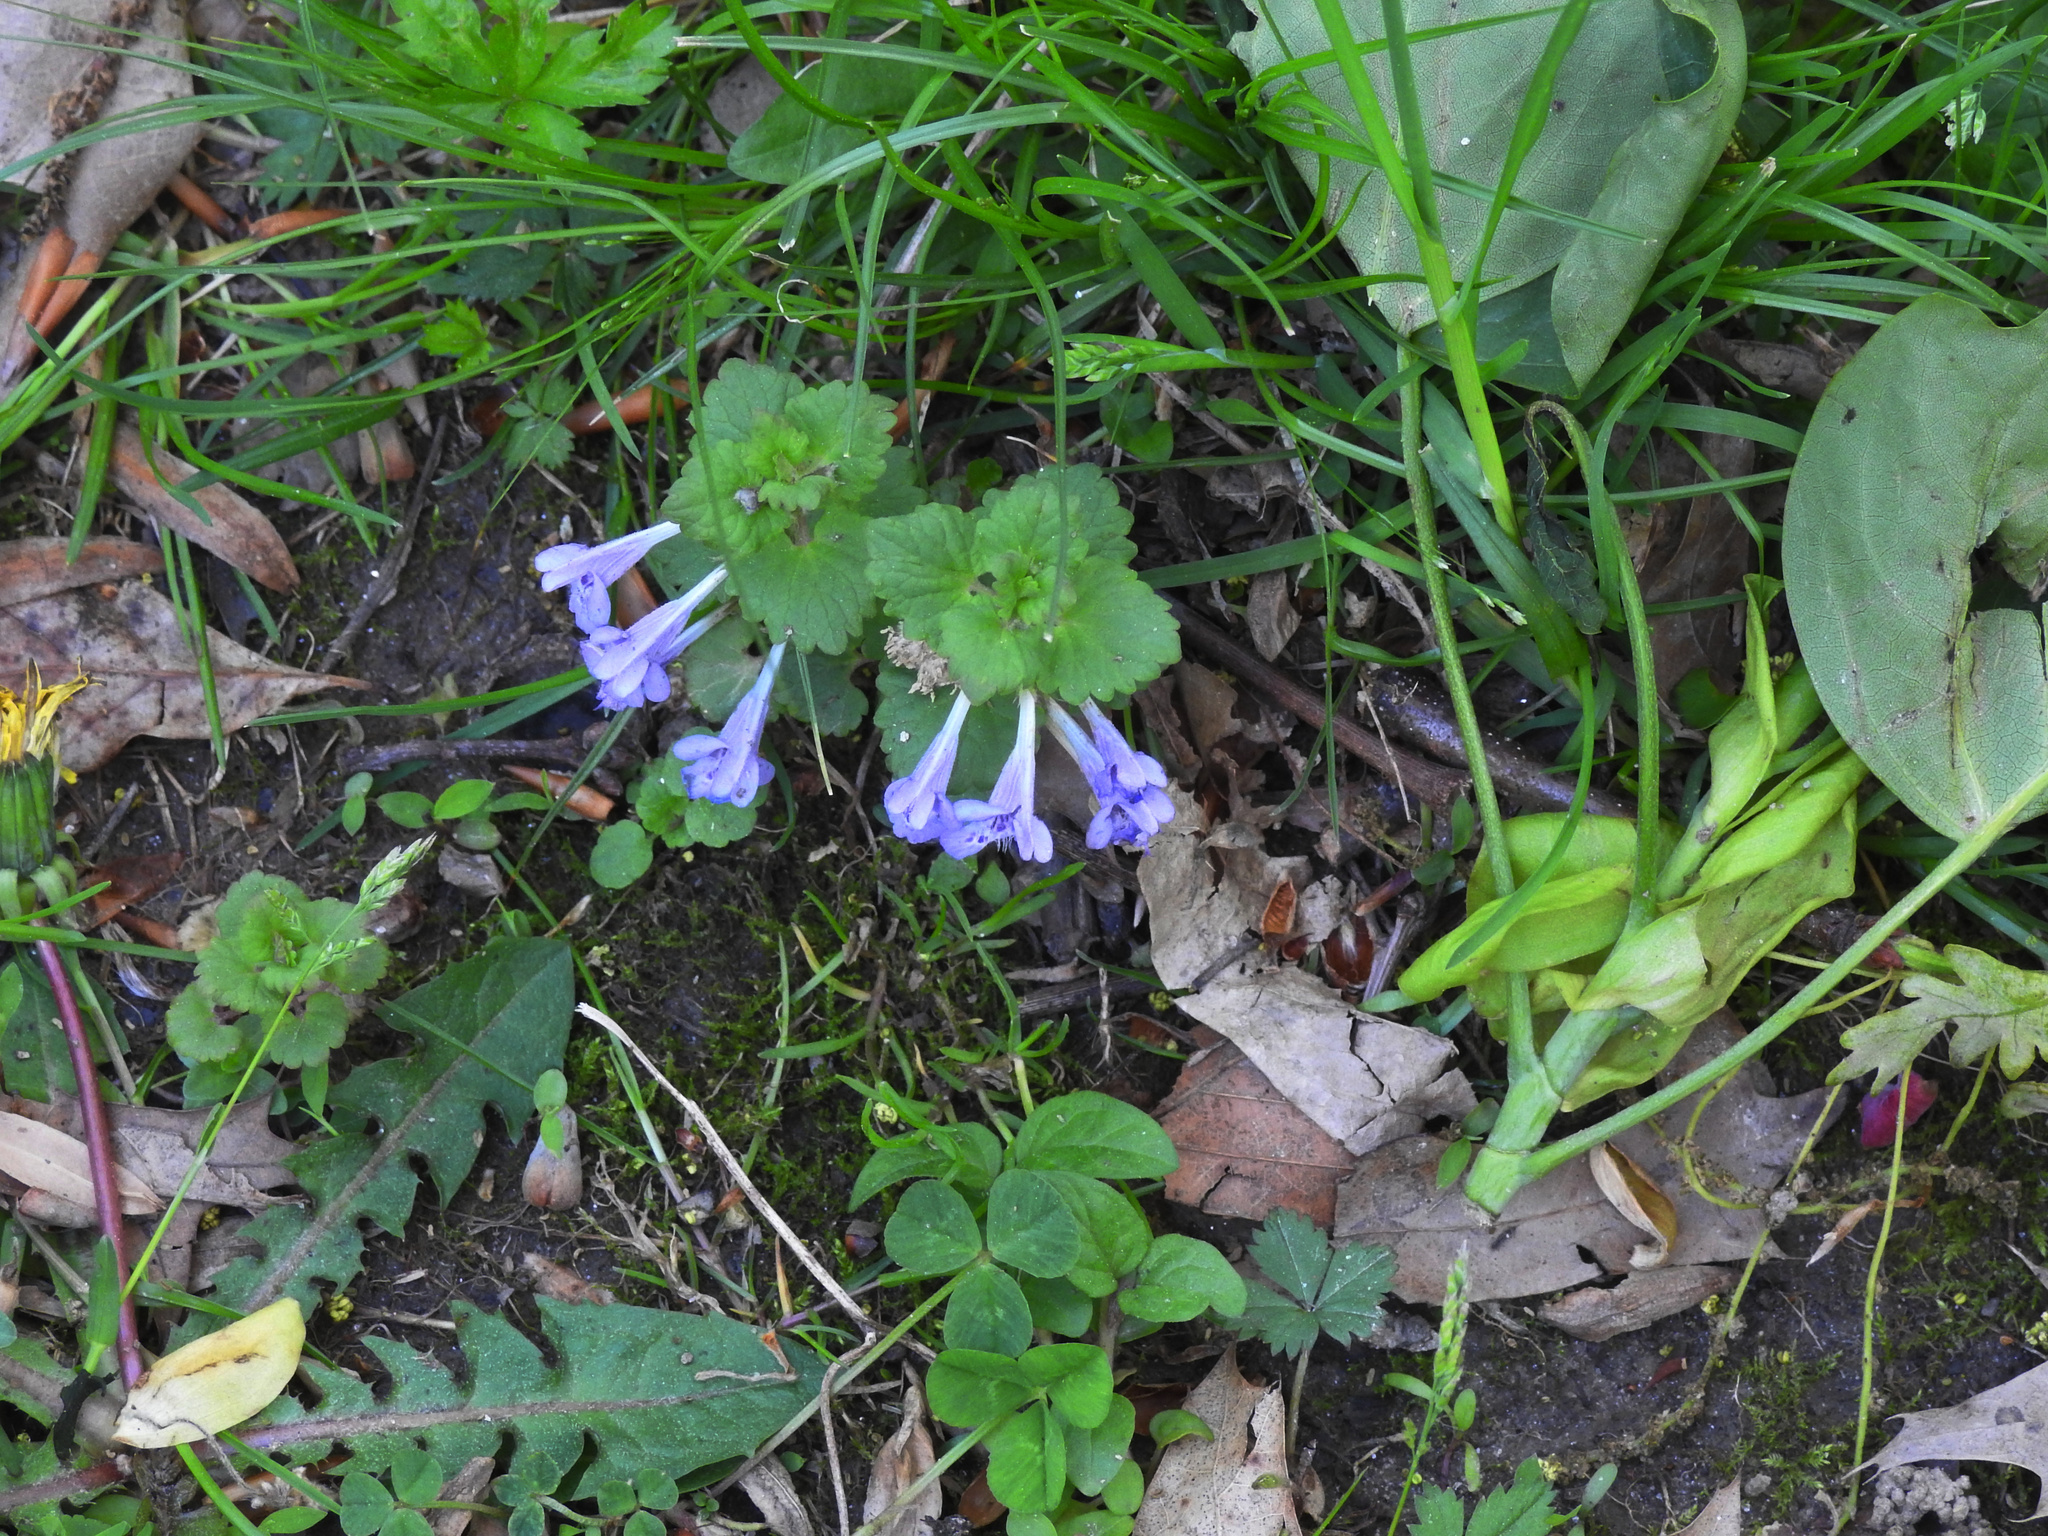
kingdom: Plantae
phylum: Tracheophyta
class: Magnoliopsida
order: Lamiales
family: Lamiaceae
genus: Glechoma
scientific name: Glechoma hederacea
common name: Ground ivy
